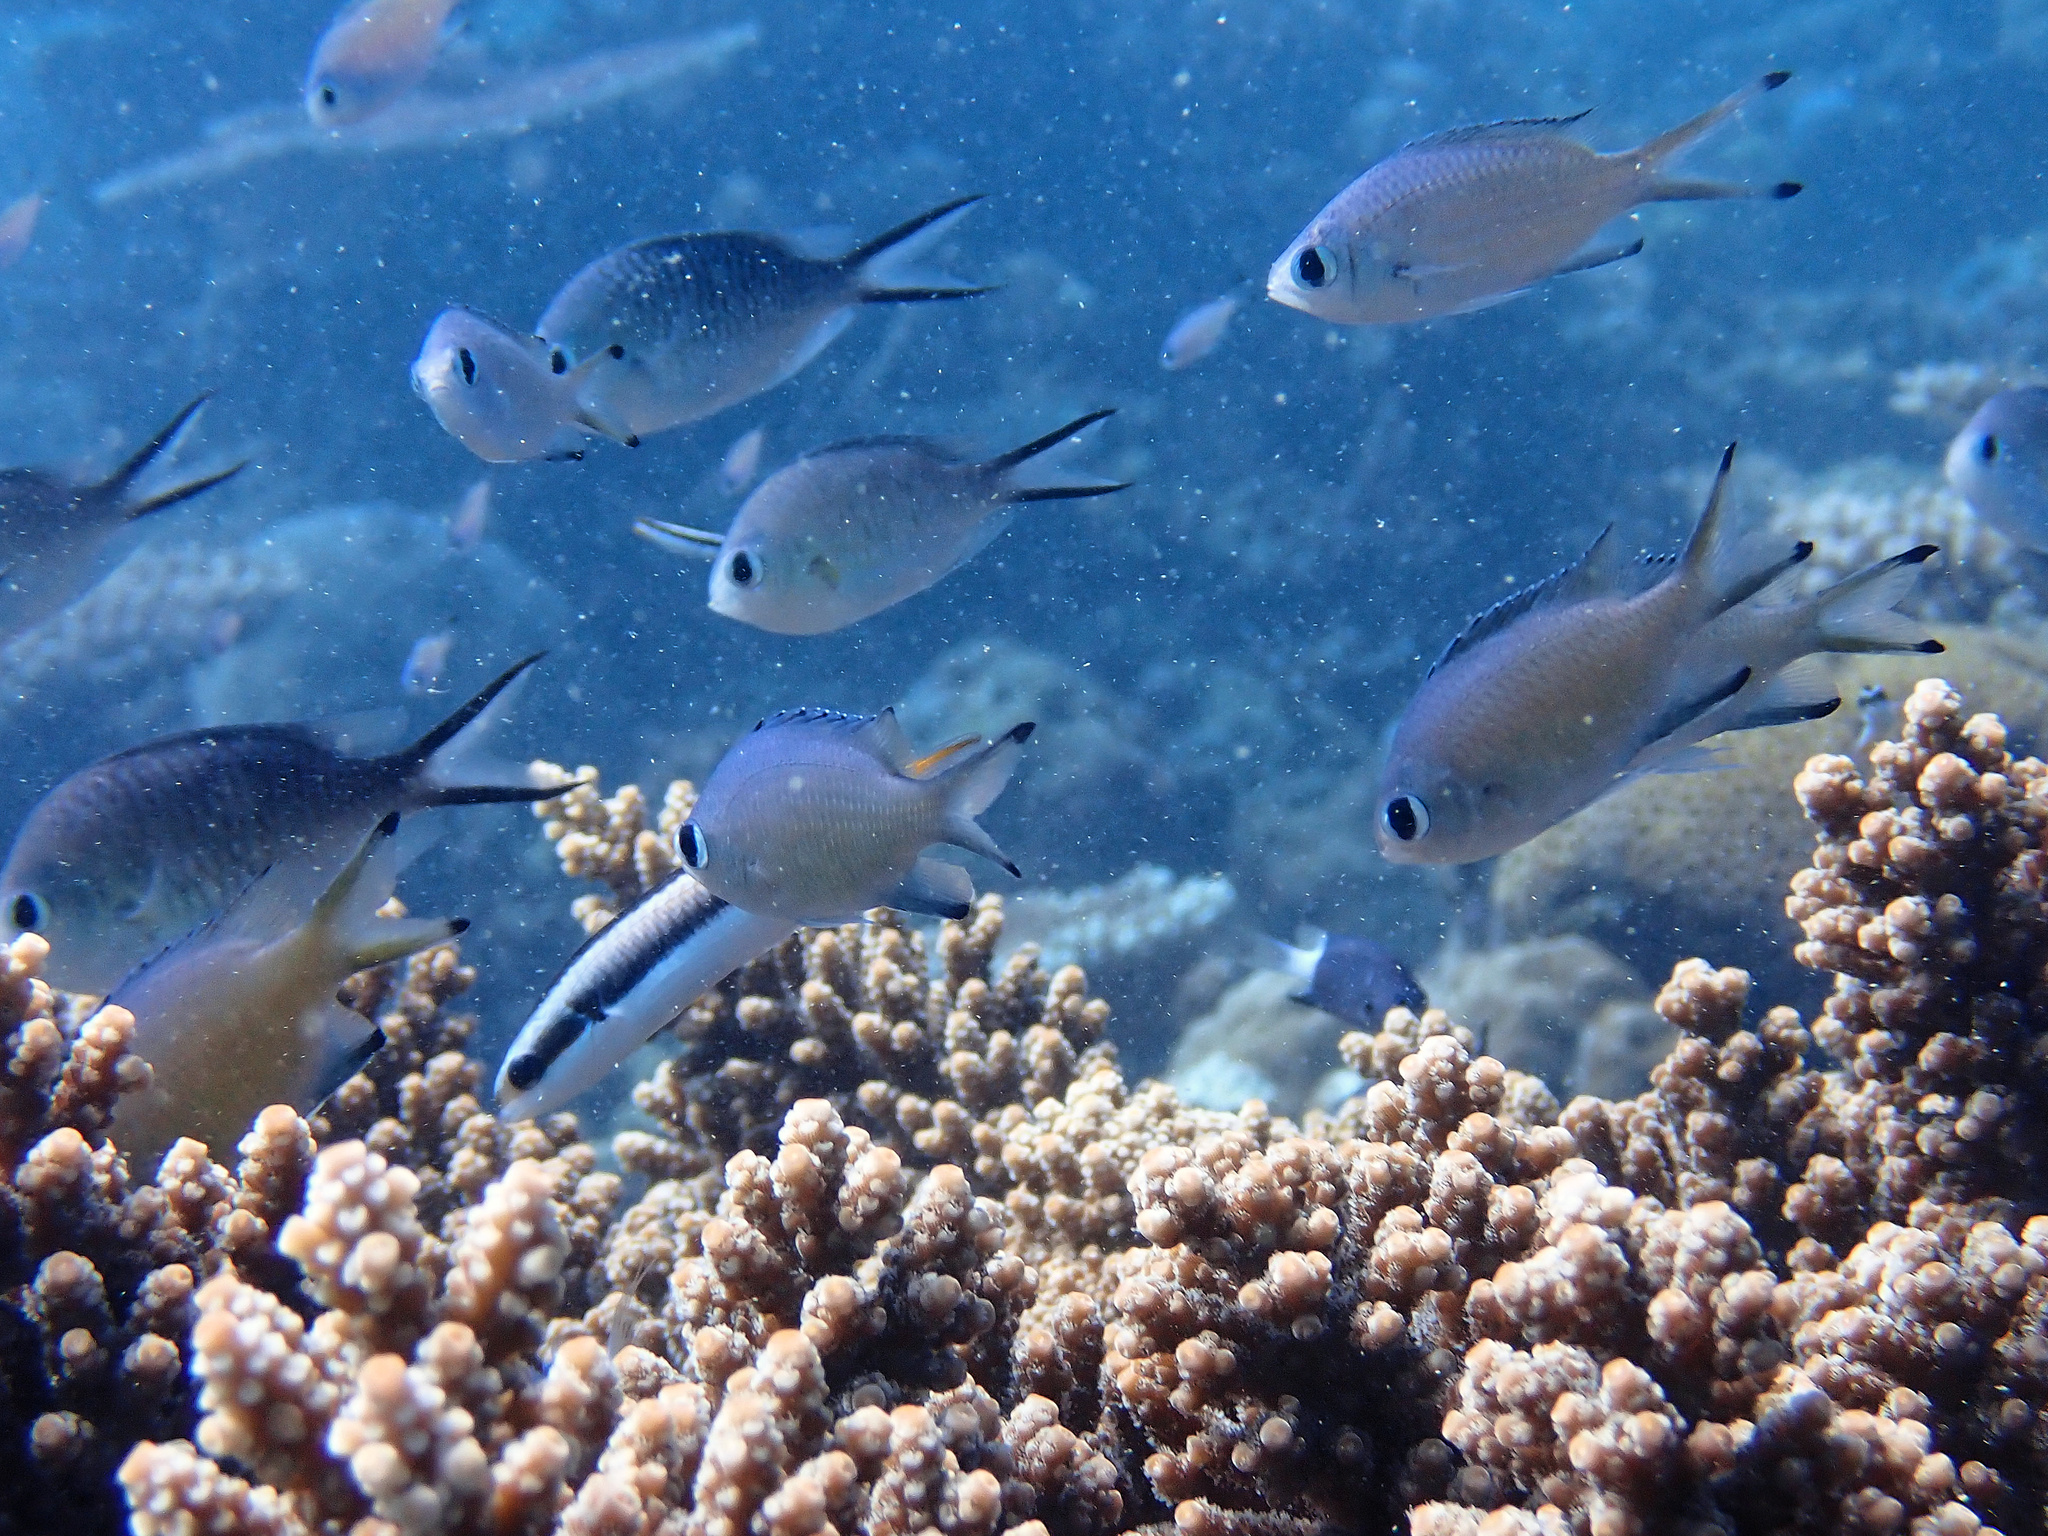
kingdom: Animalia
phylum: Chordata
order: Perciformes
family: Pomacentridae
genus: Chromis
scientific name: Chromis lepidolepis
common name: Scaly chromis
